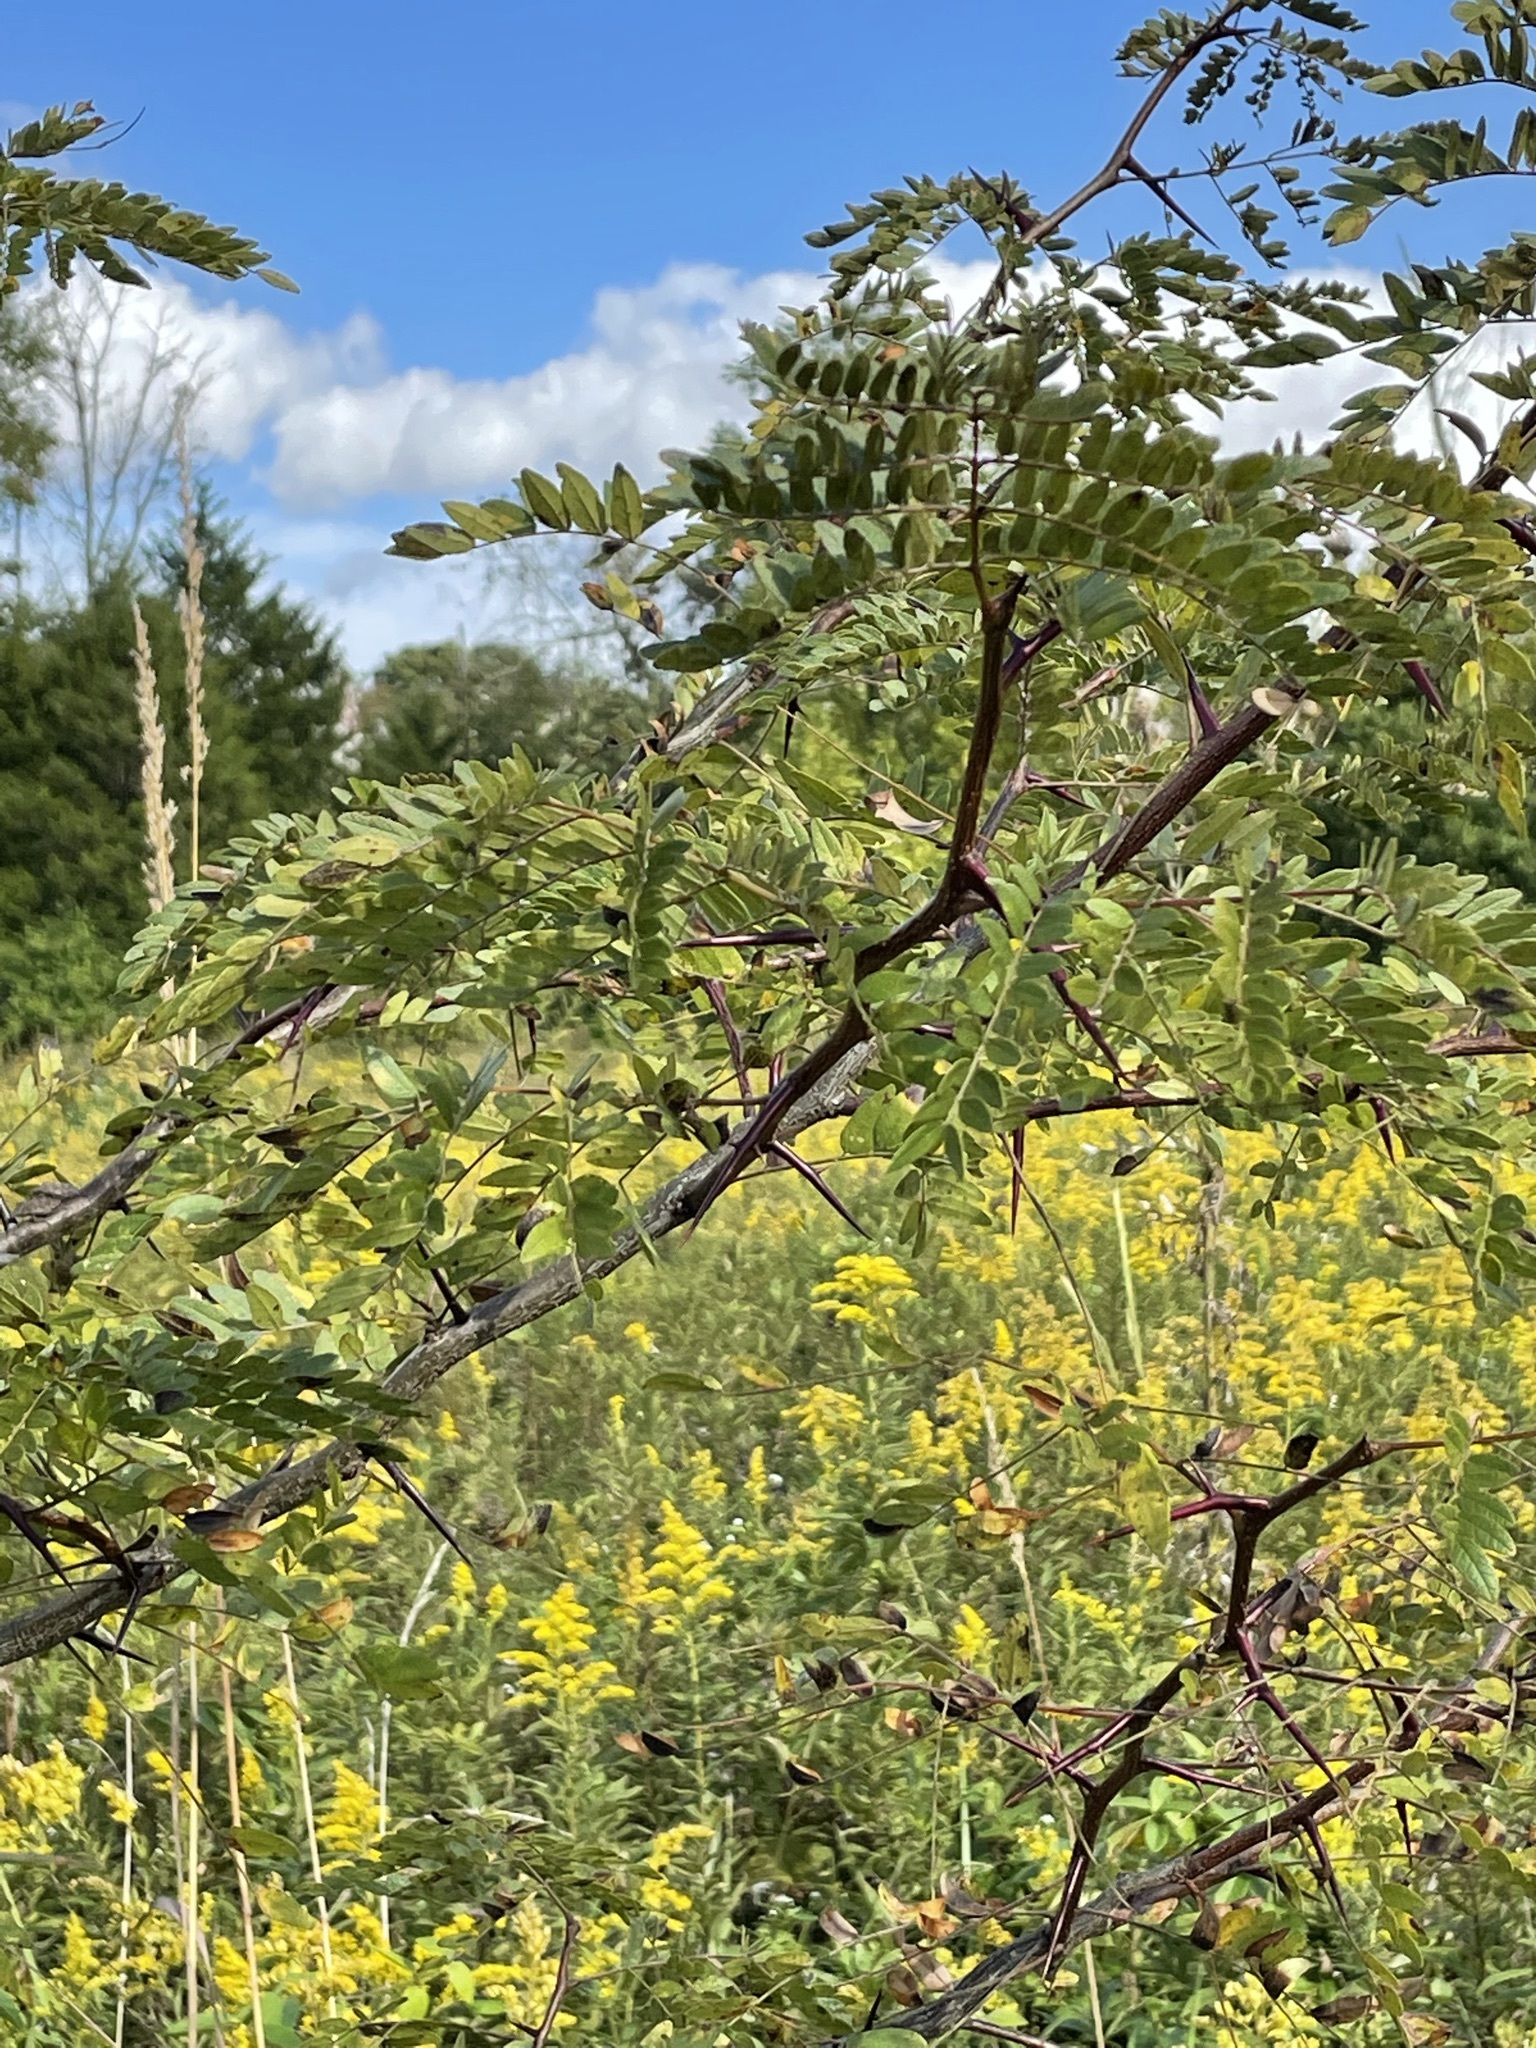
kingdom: Plantae
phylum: Tracheophyta
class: Magnoliopsida
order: Fabales
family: Fabaceae
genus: Gleditsia
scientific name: Gleditsia triacanthos
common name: Common honeylocust
